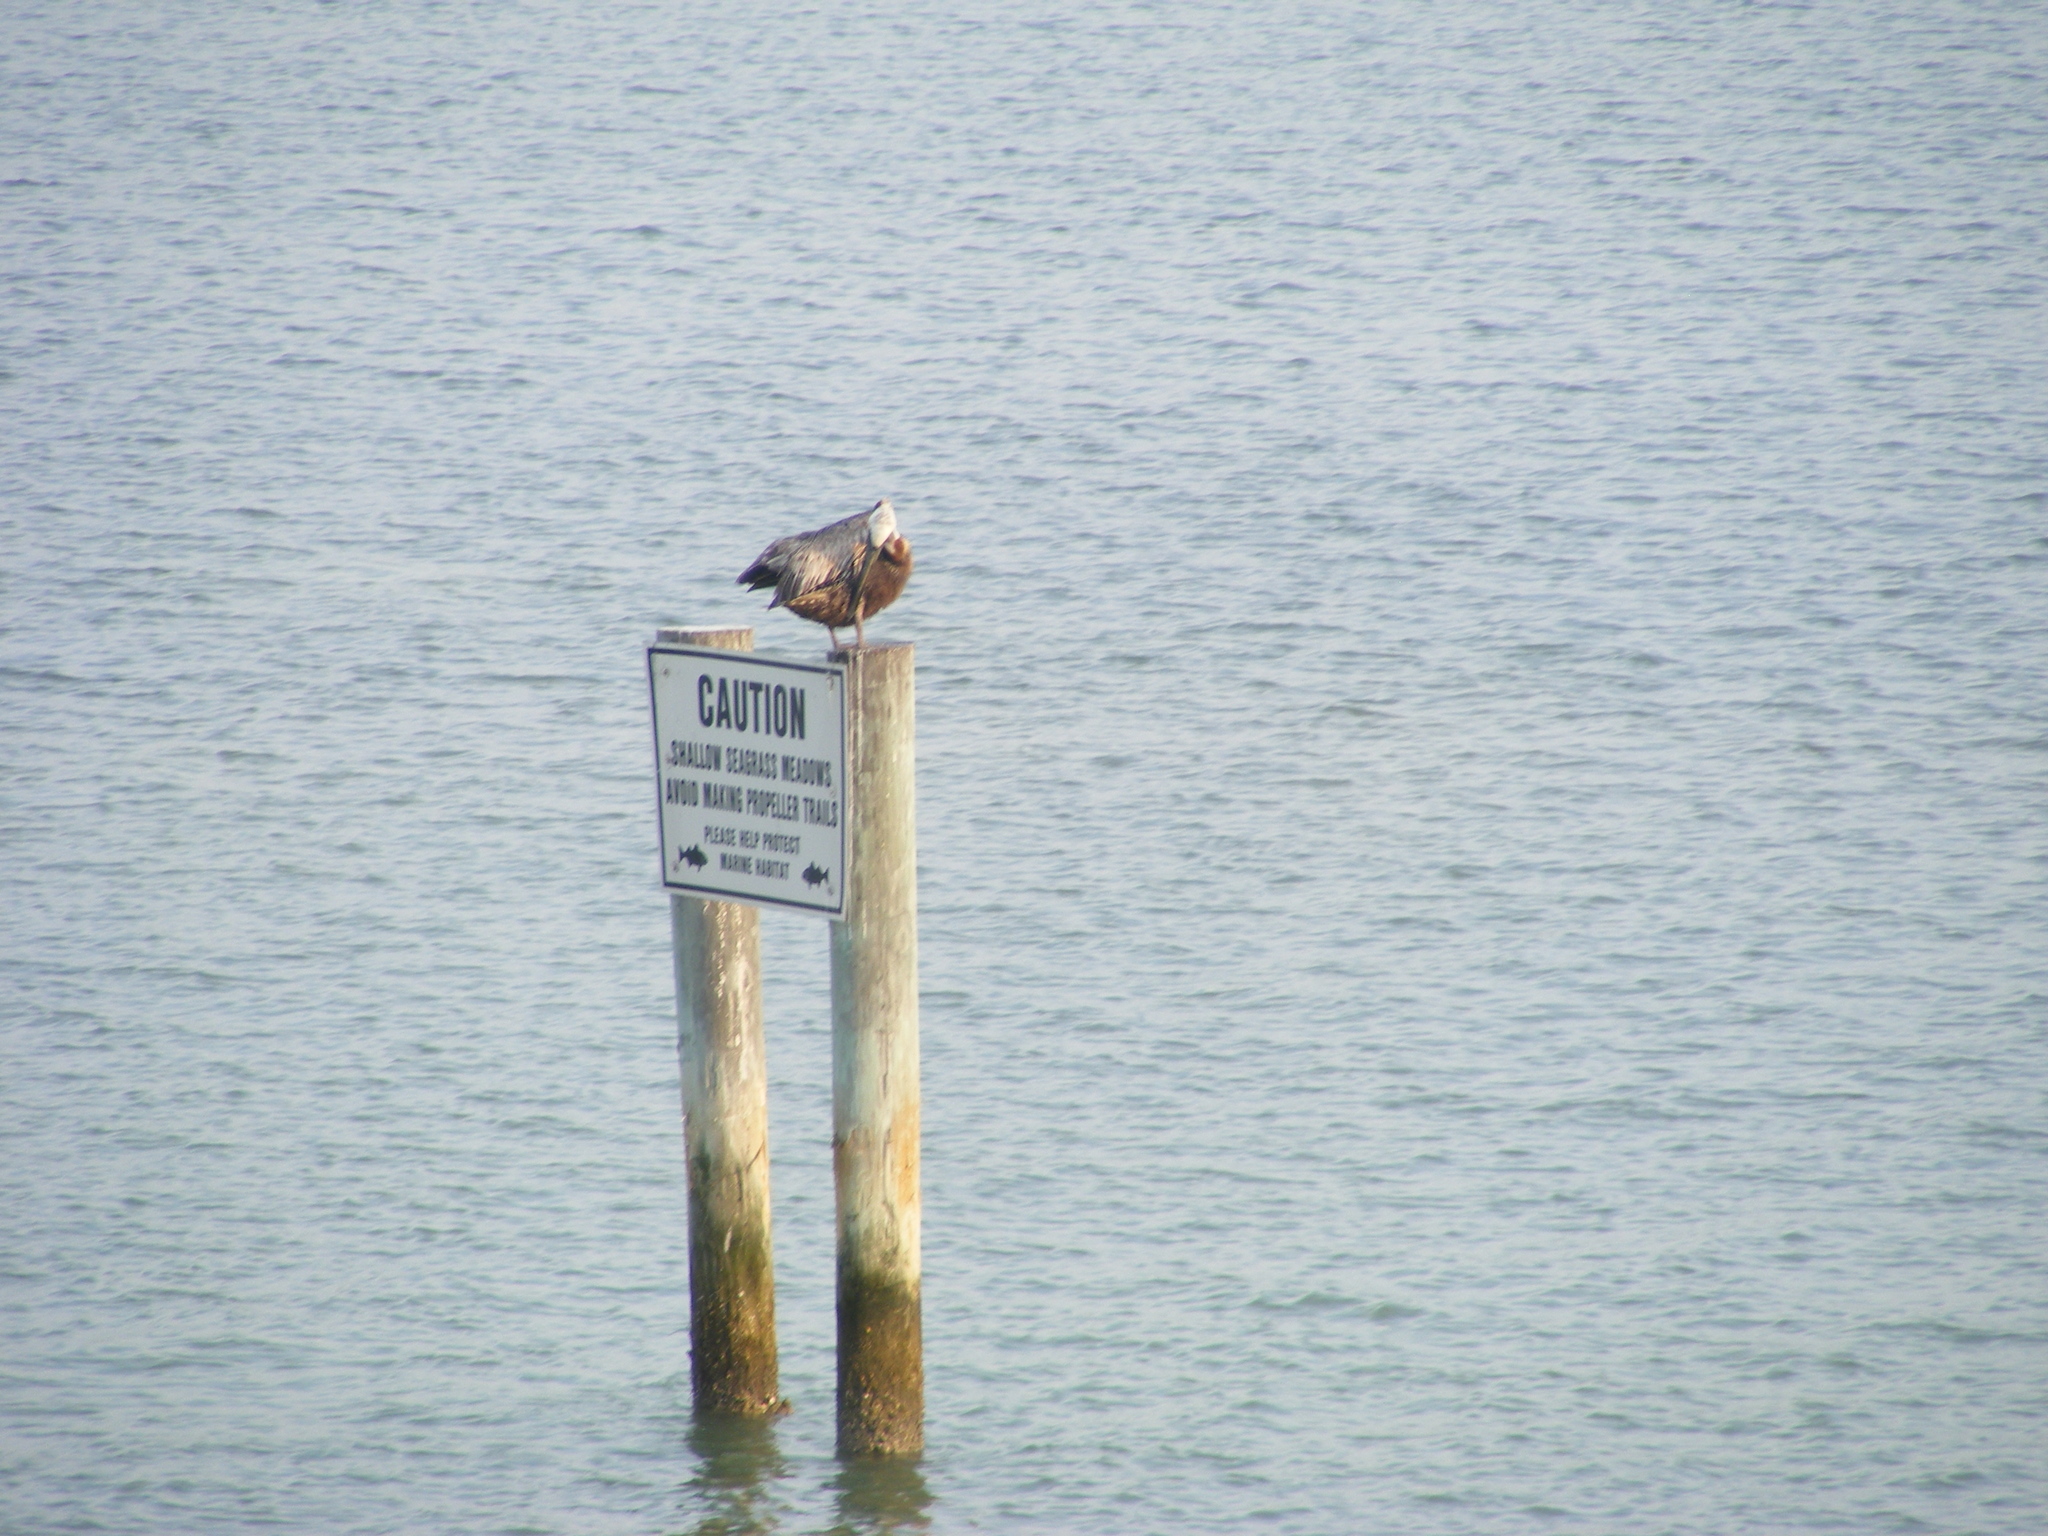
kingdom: Animalia
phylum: Chordata
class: Aves
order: Pelecaniformes
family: Pelecanidae
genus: Pelecanus
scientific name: Pelecanus occidentalis
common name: Brown pelican
